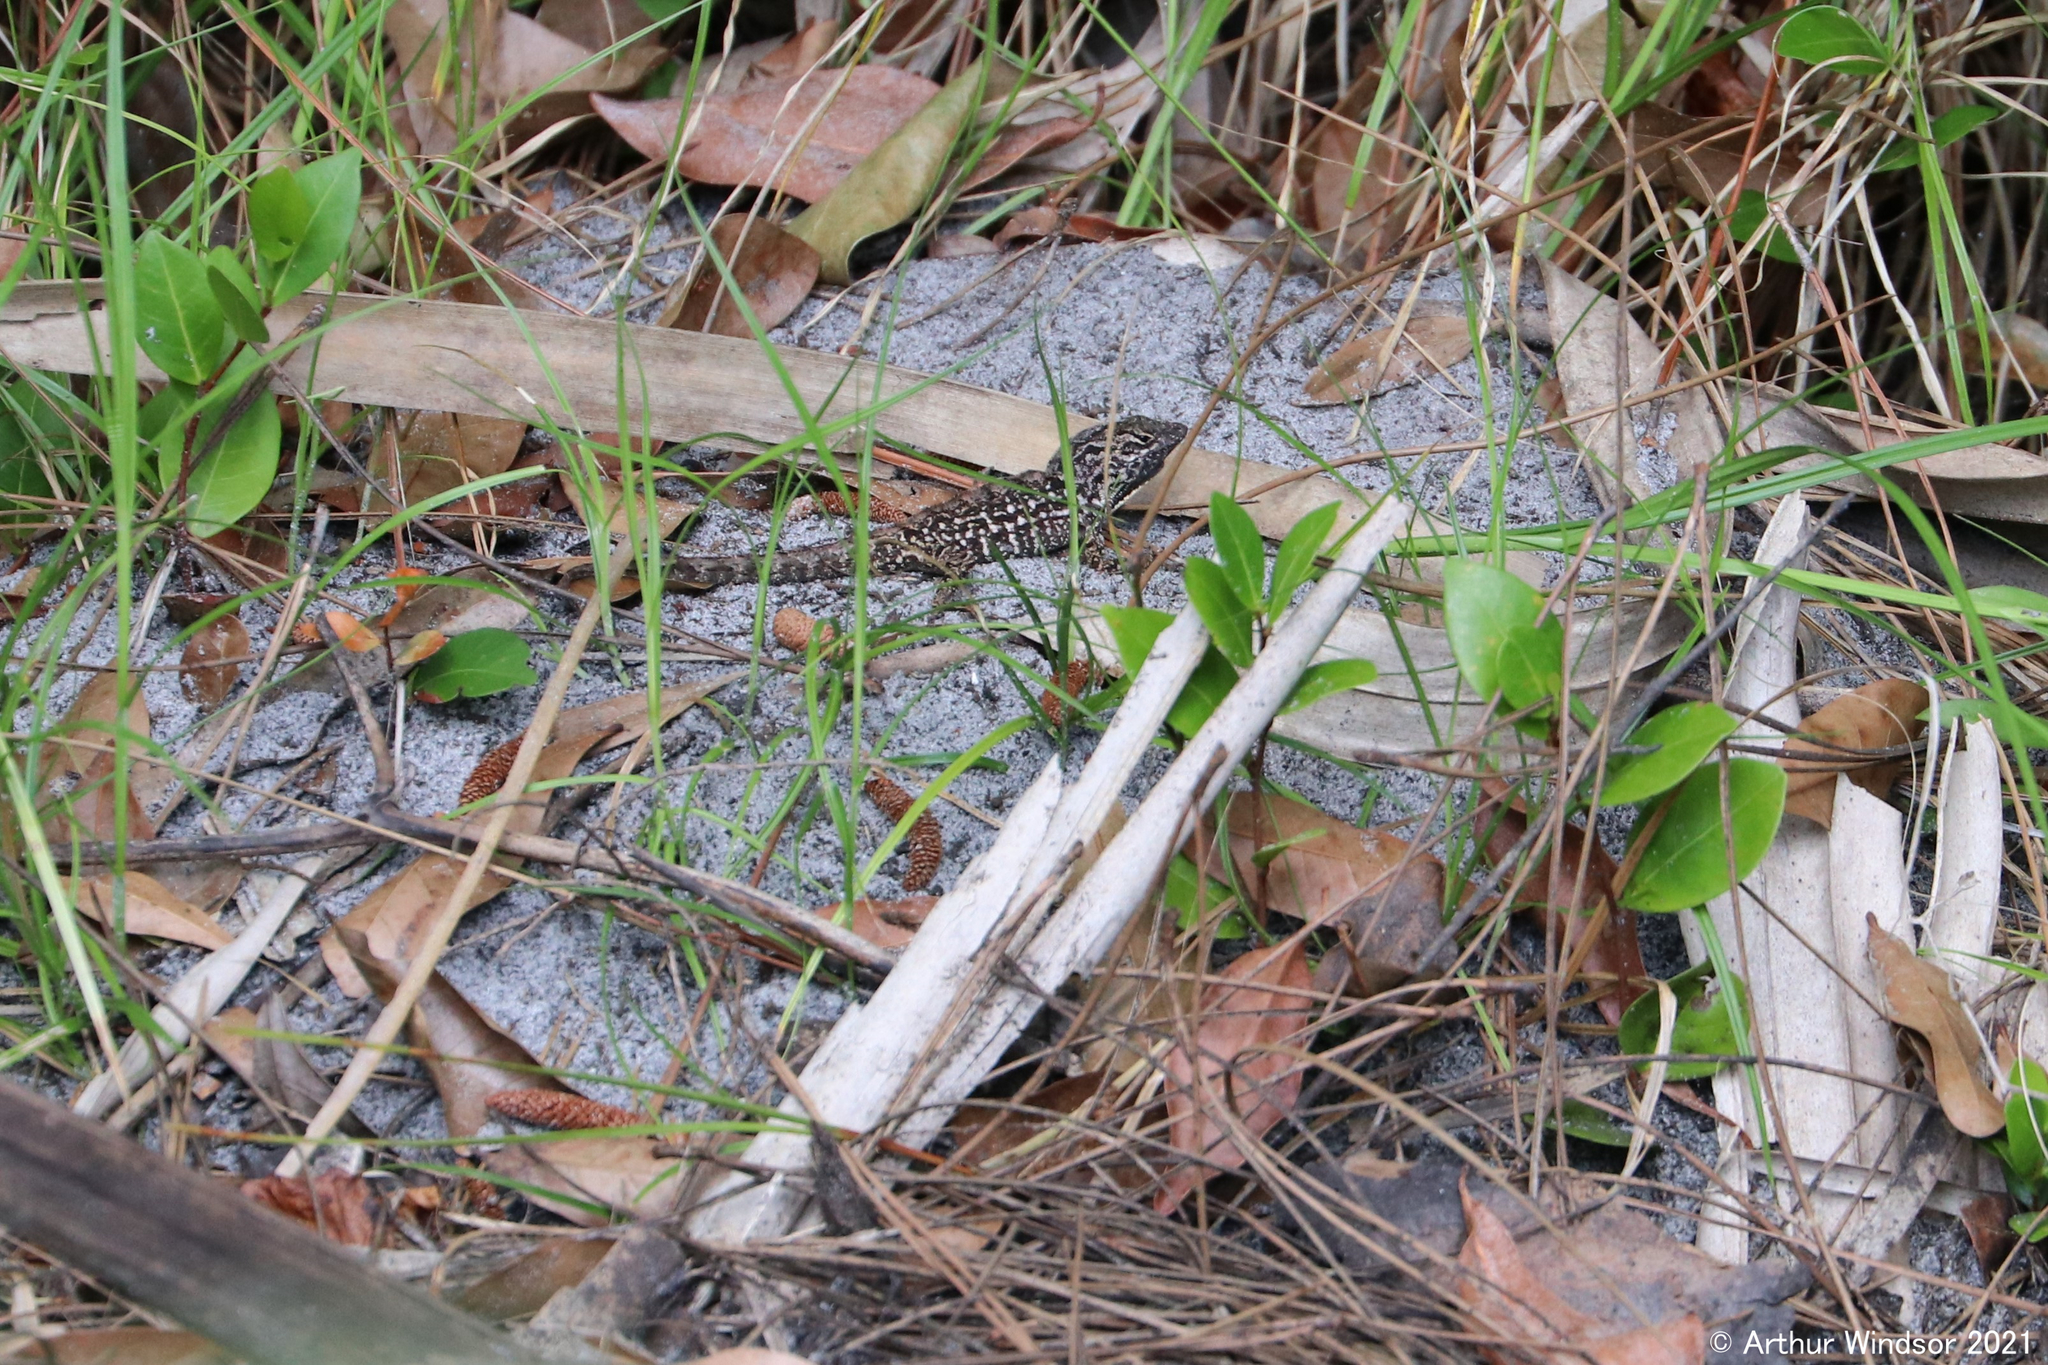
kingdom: Animalia
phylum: Chordata
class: Squamata
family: Dactyloidae
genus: Anolis
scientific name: Anolis sagrei
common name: Brown anole
